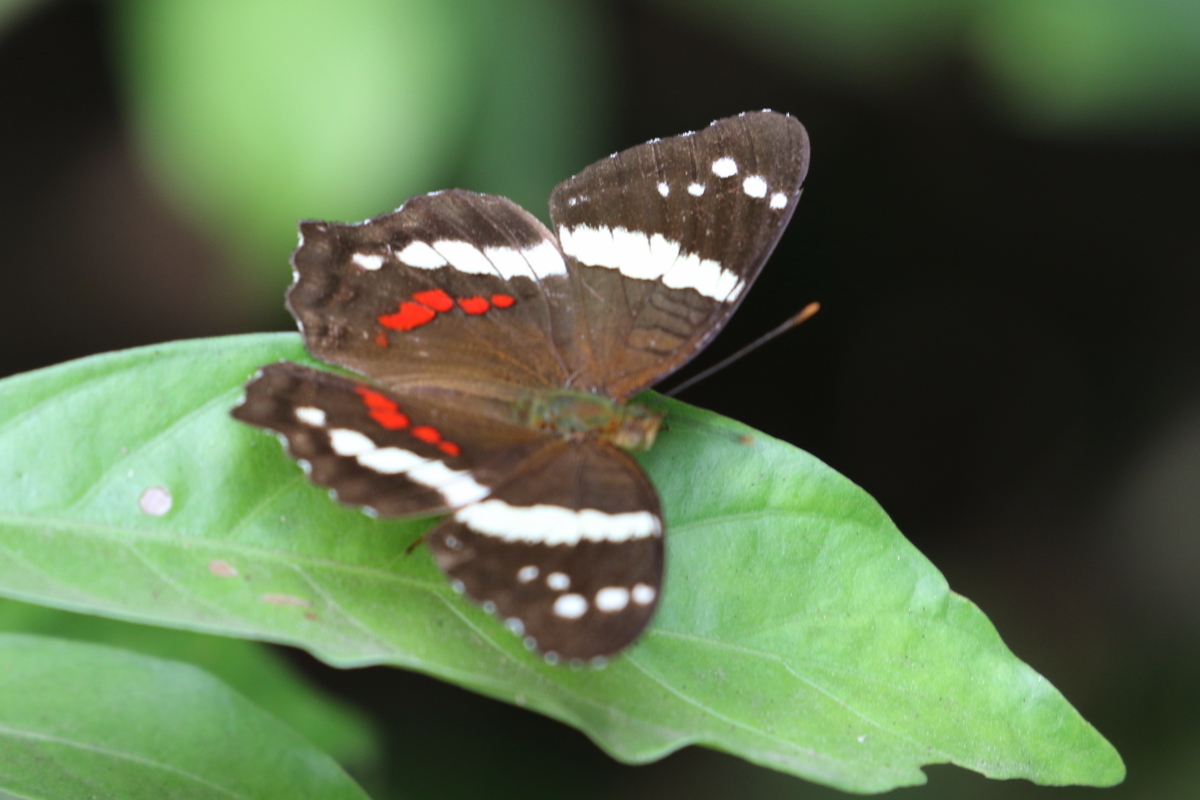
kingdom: Animalia
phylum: Arthropoda
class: Insecta
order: Lepidoptera
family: Nymphalidae
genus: Anartia
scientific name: Anartia fatima
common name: Banded peacock
